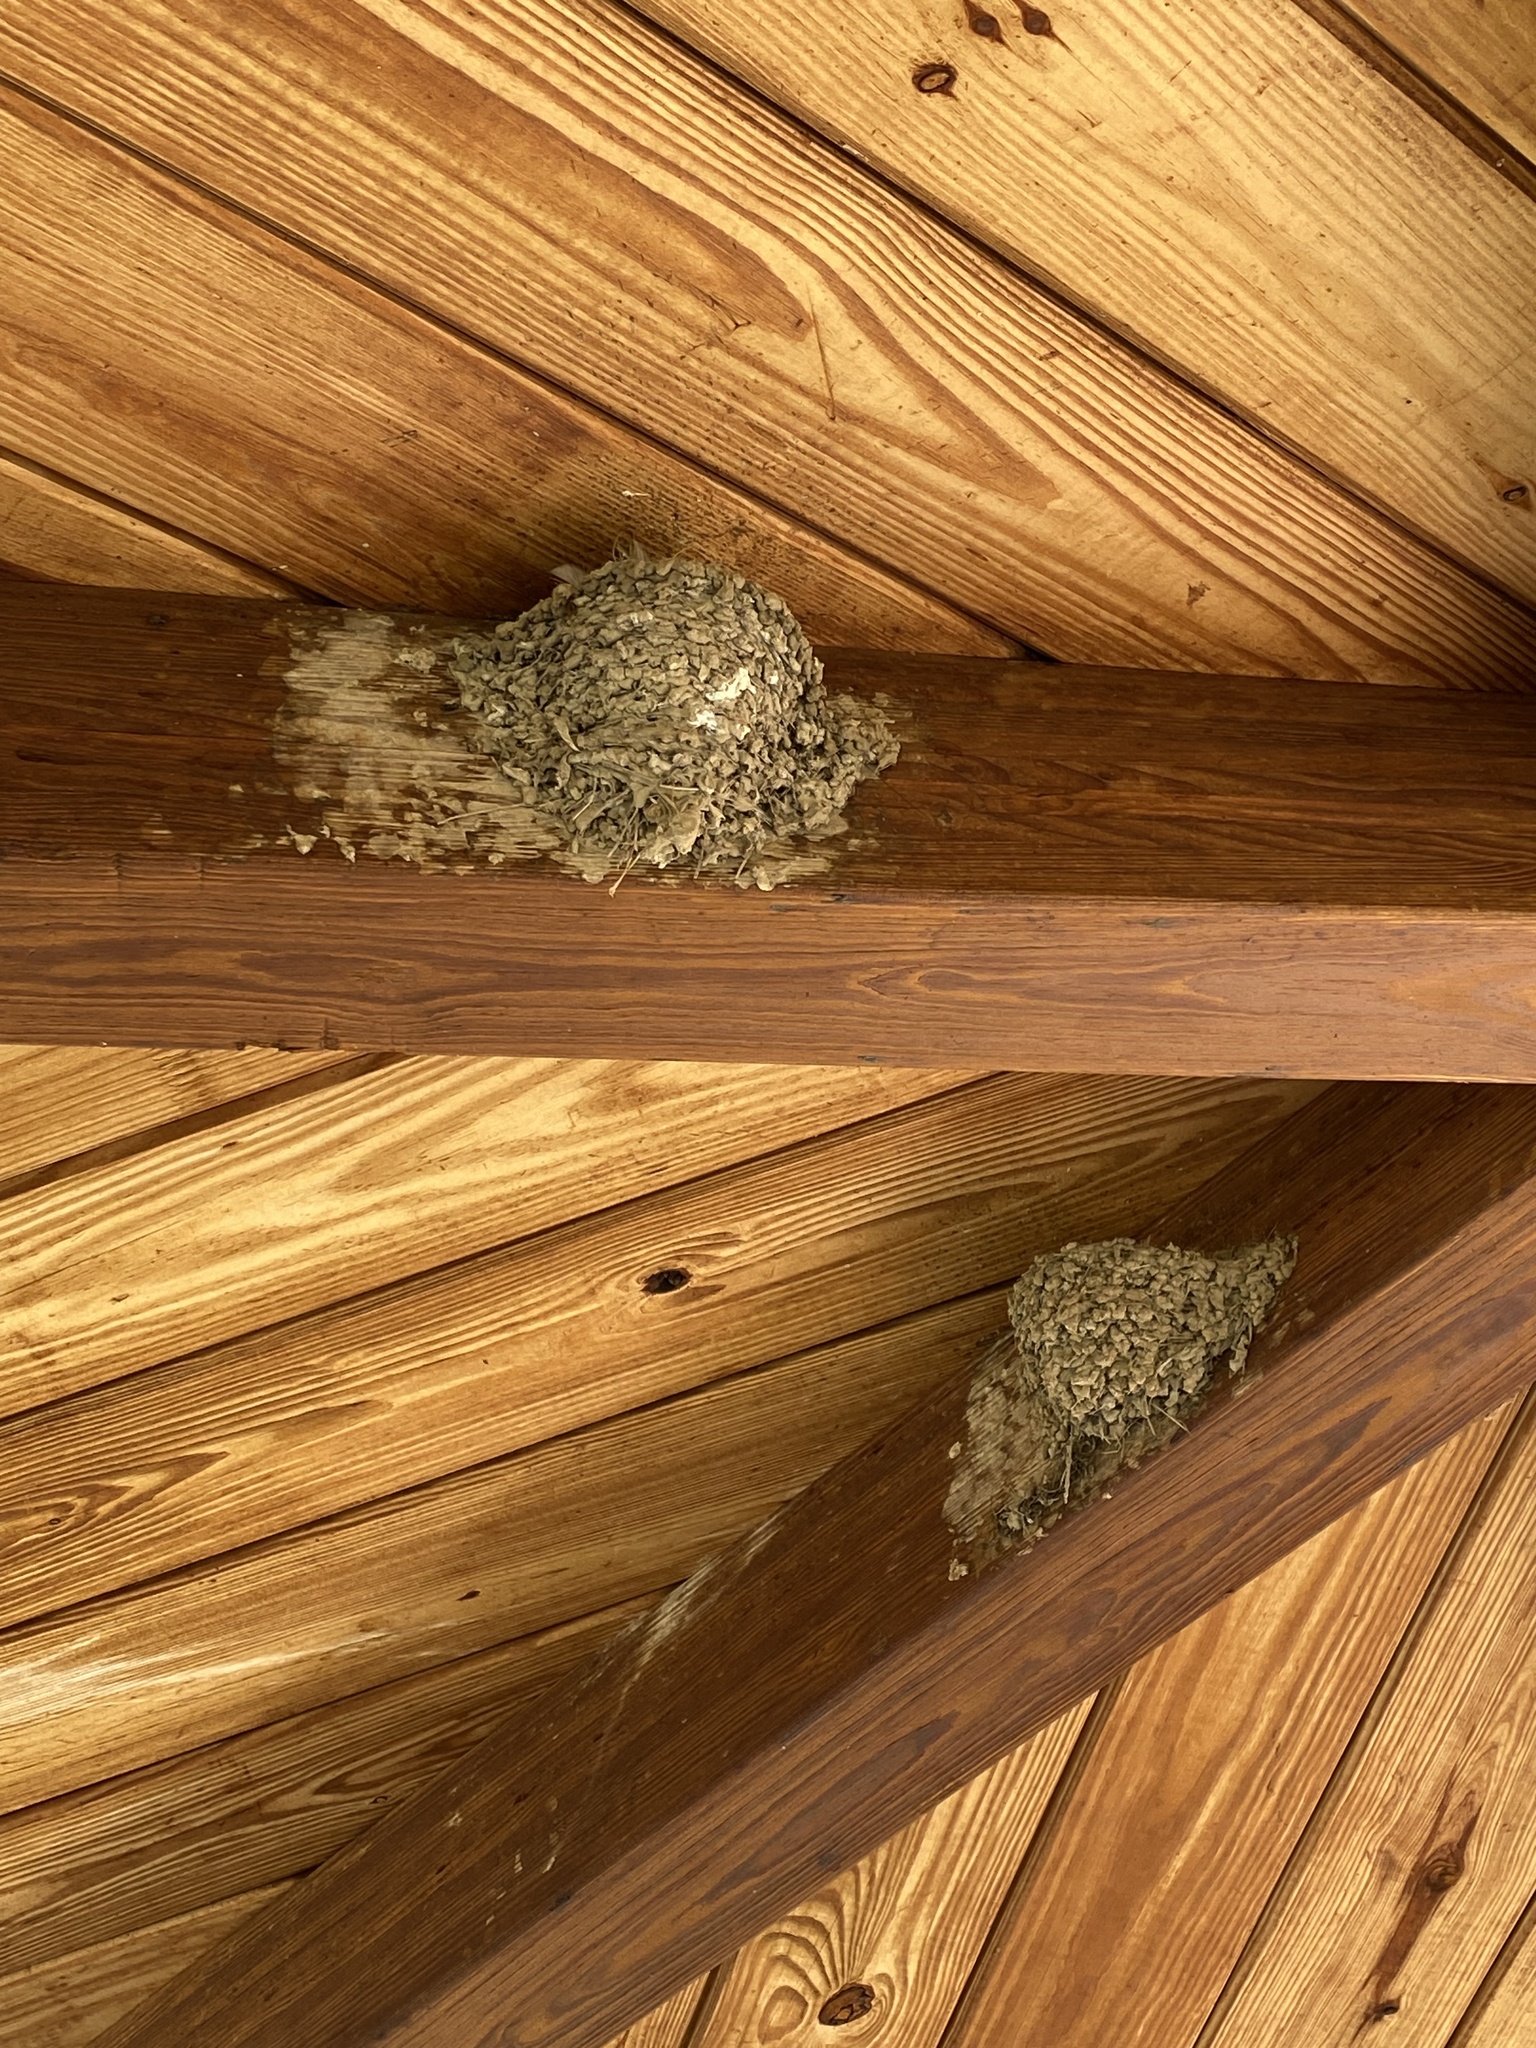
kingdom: Animalia
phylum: Chordata
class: Aves
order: Passeriformes
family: Hirundinidae
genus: Hirundo
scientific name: Hirundo rustica
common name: Barn swallow
